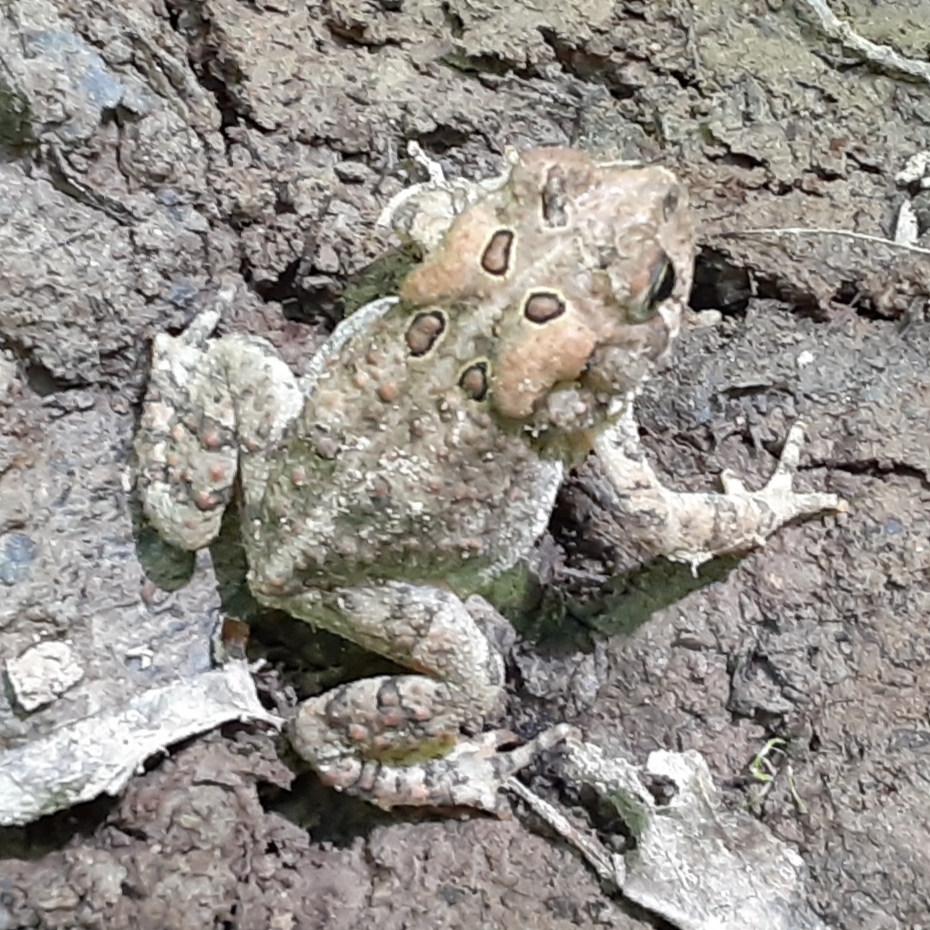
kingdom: Animalia
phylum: Chordata
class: Amphibia
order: Anura
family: Bufonidae
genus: Anaxyrus
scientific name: Anaxyrus americanus
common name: American toad
